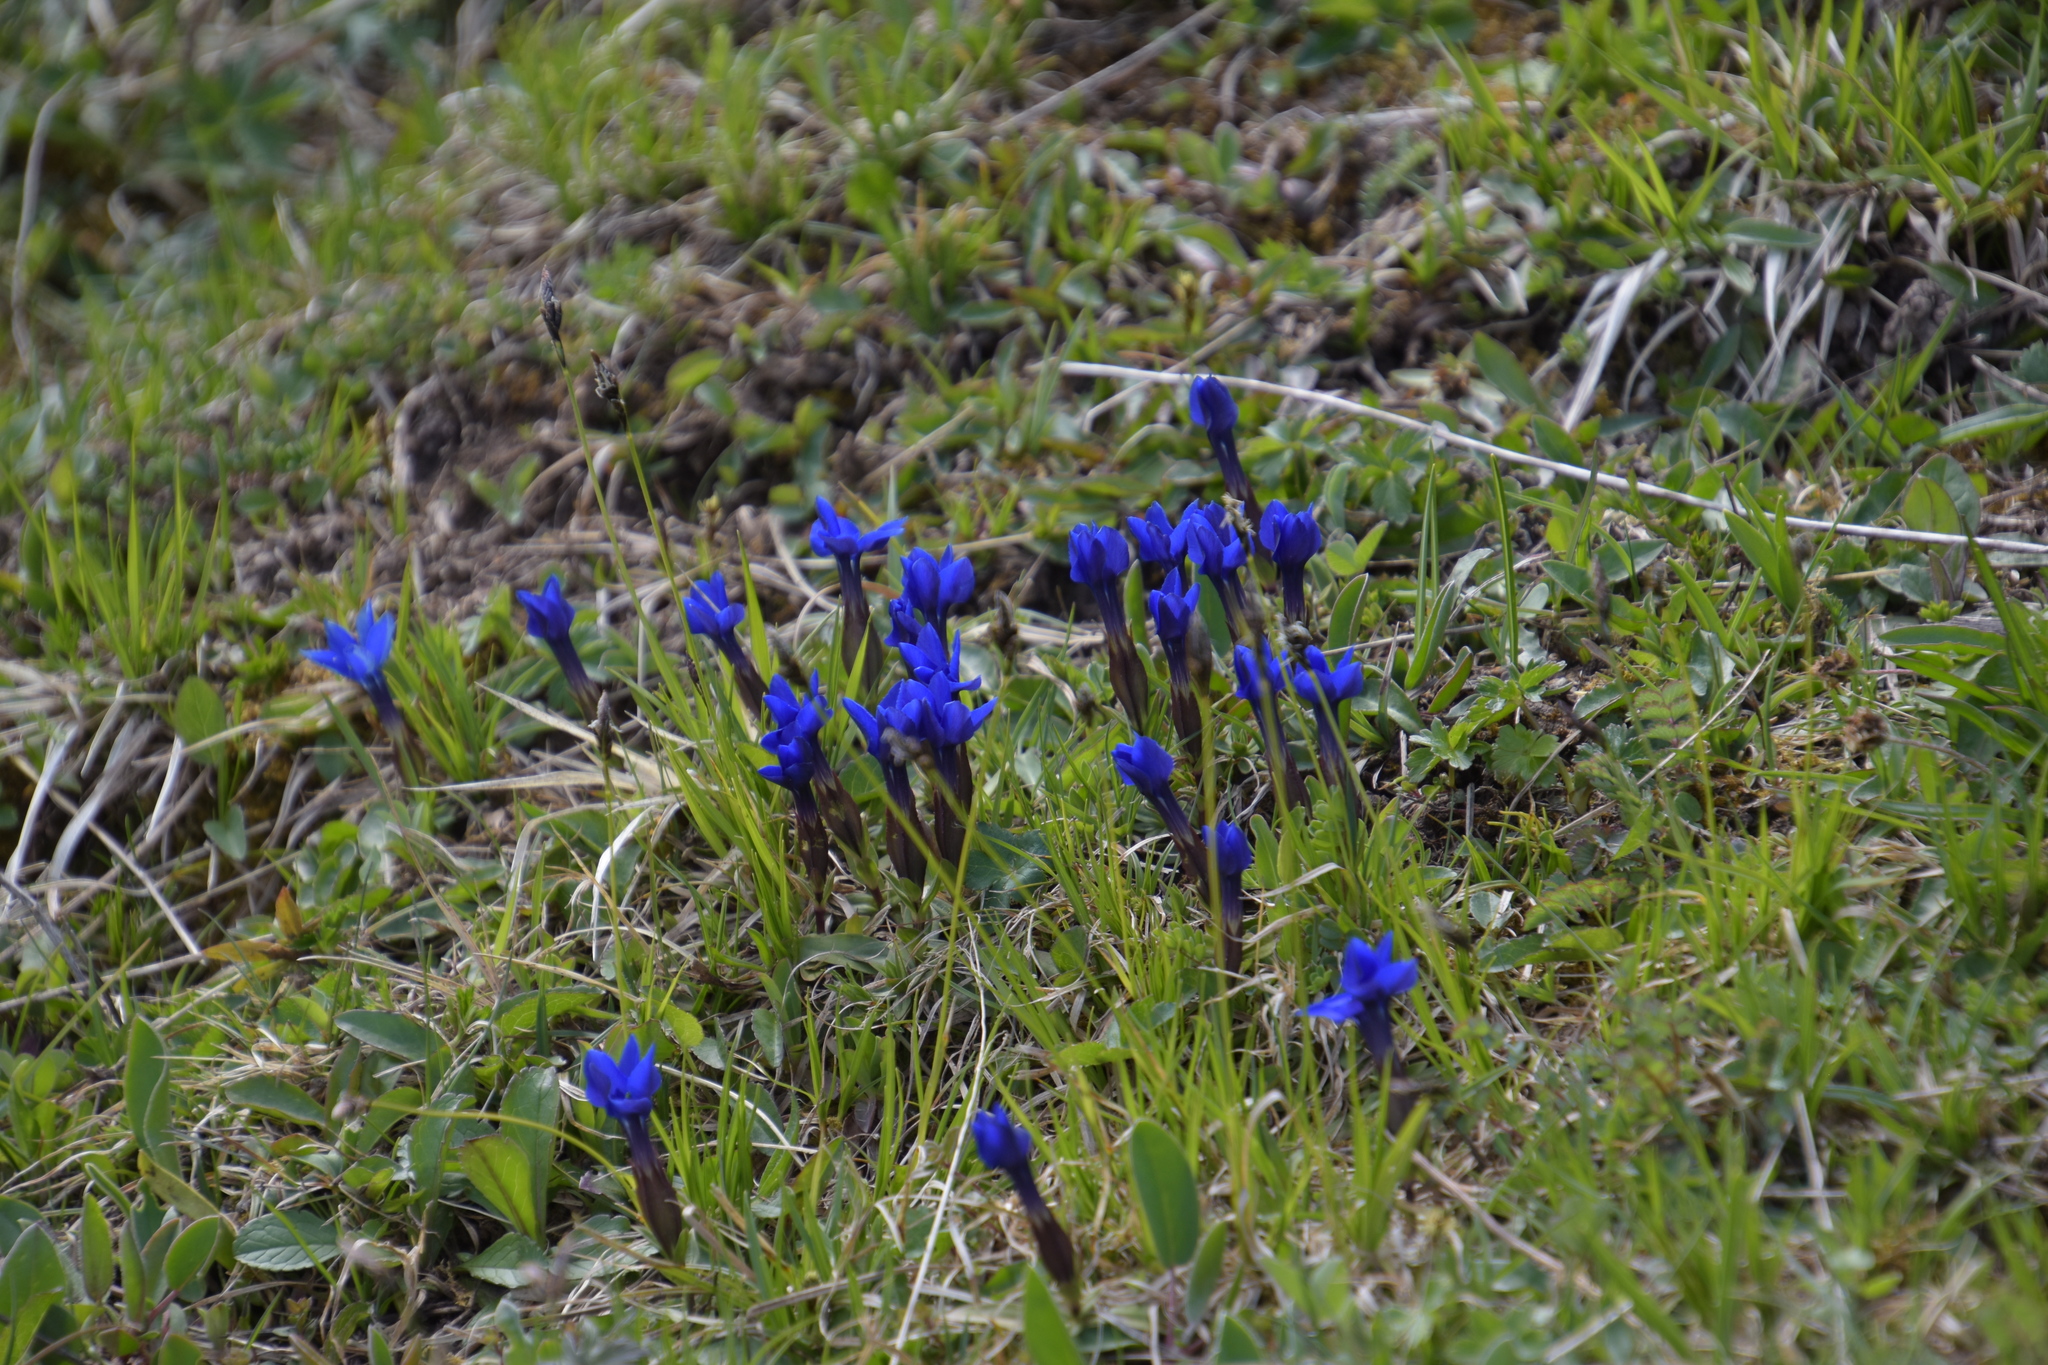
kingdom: Plantae
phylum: Tracheophyta
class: Magnoliopsida
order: Gentianales
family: Gentianaceae
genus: Gentiana
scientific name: Gentiana verna
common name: Spring gentian
